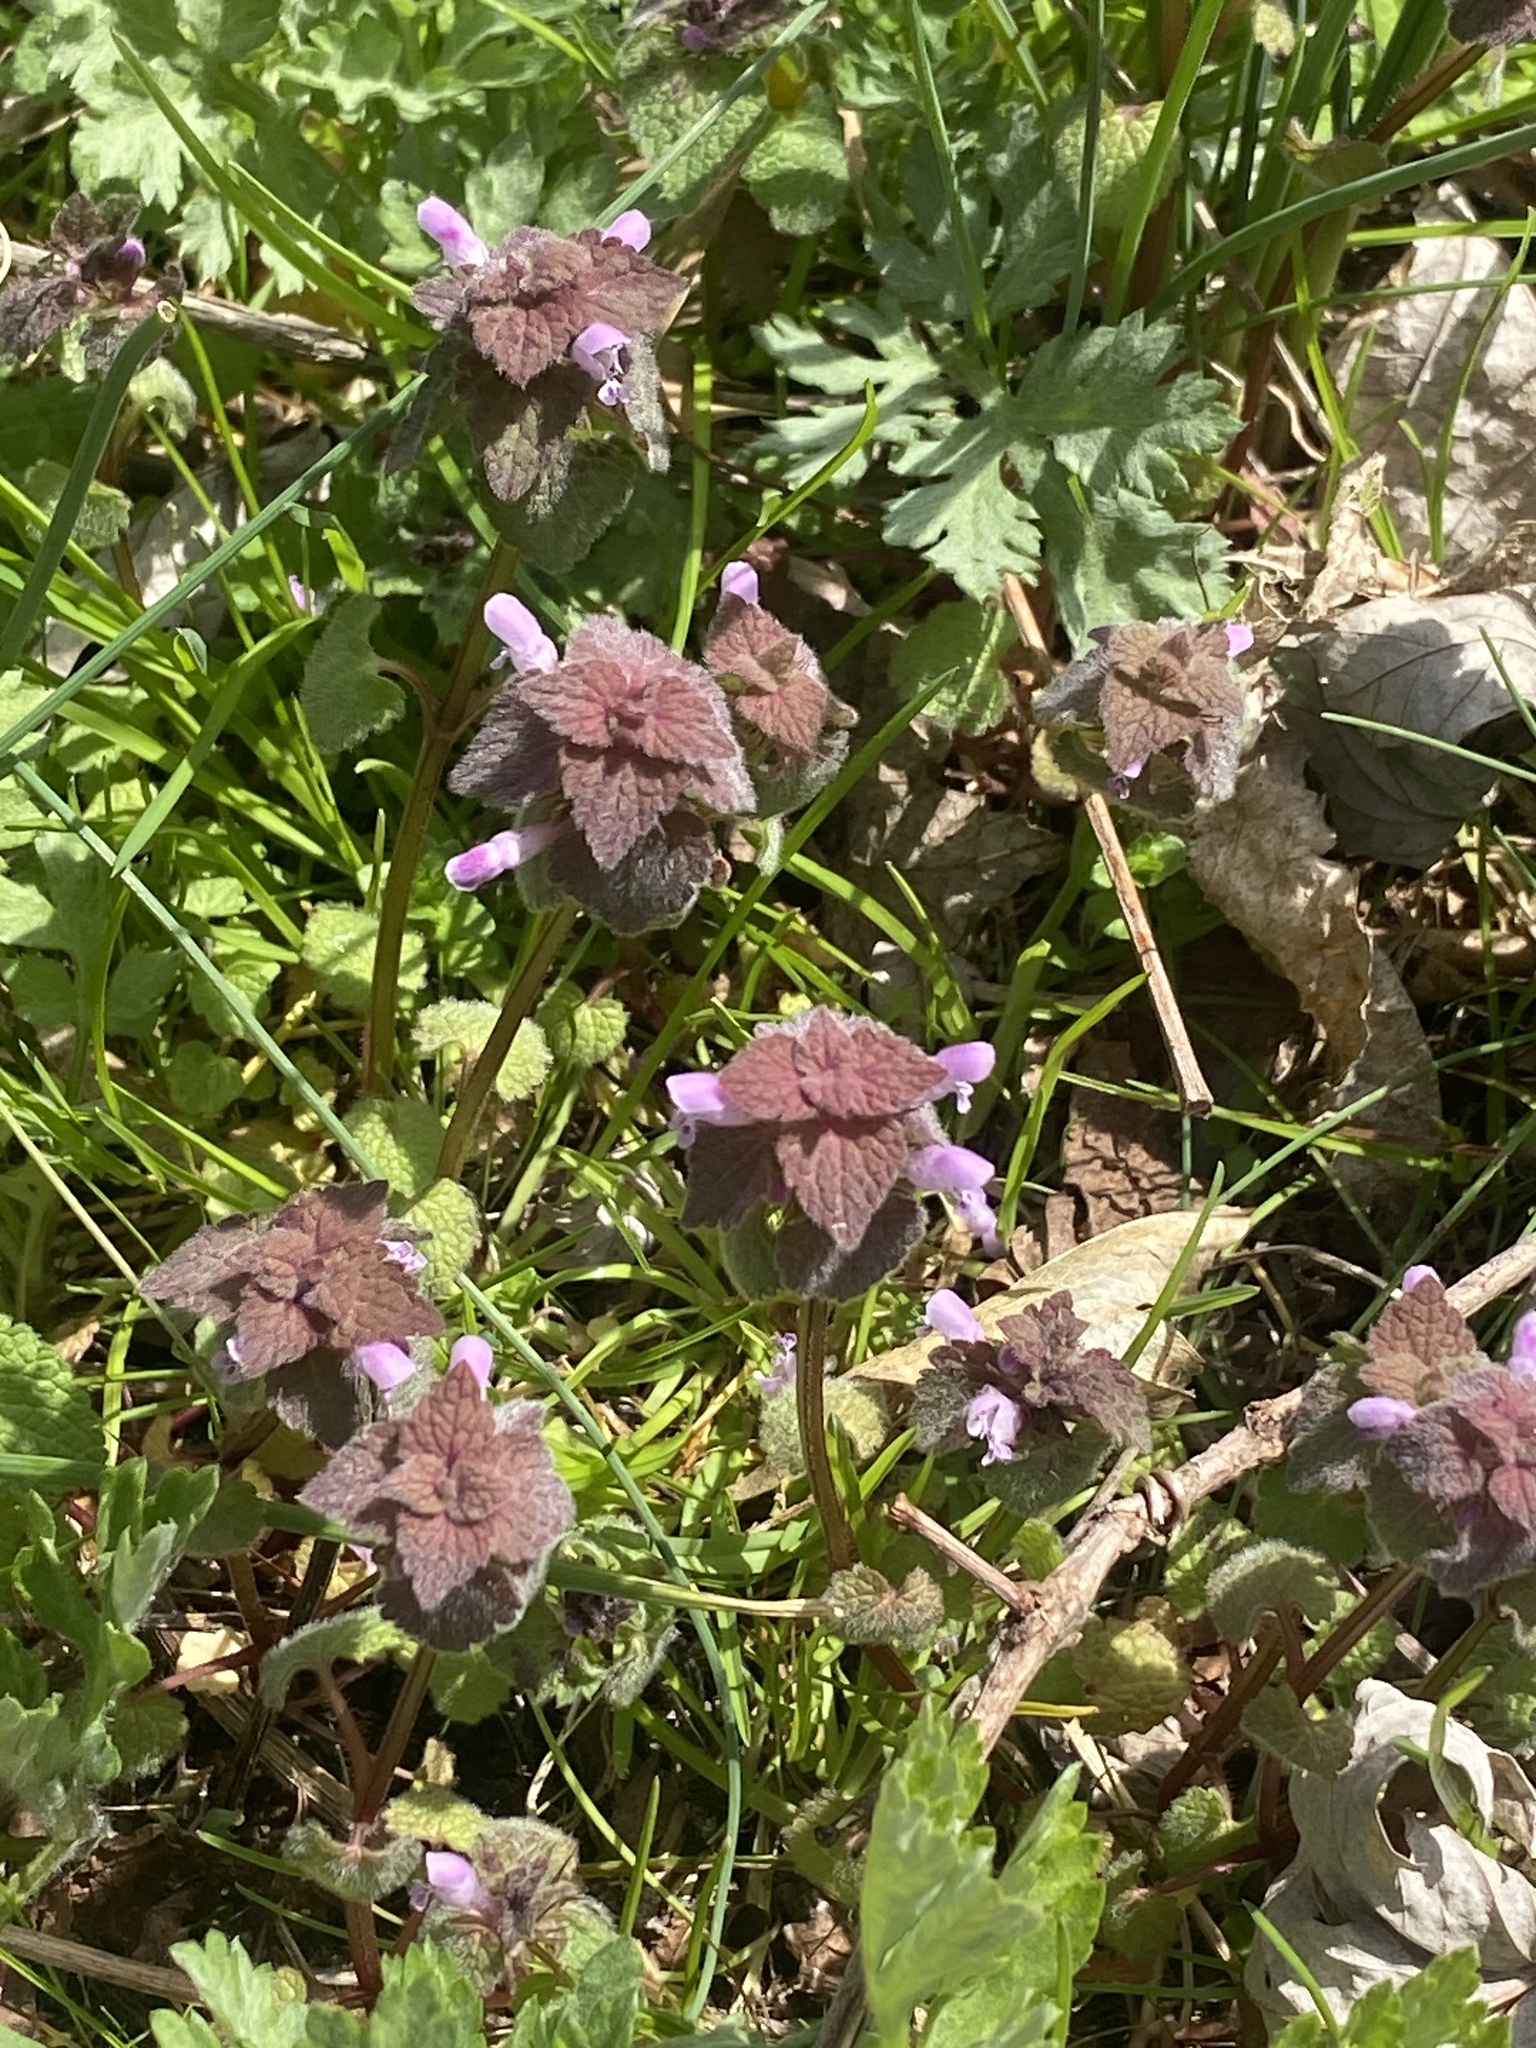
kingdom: Plantae
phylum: Tracheophyta
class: Magnoliopsida
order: Lamiales
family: Lamiaceae
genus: Lamium
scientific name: Lamium purpureum
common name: Red dead-nettle
